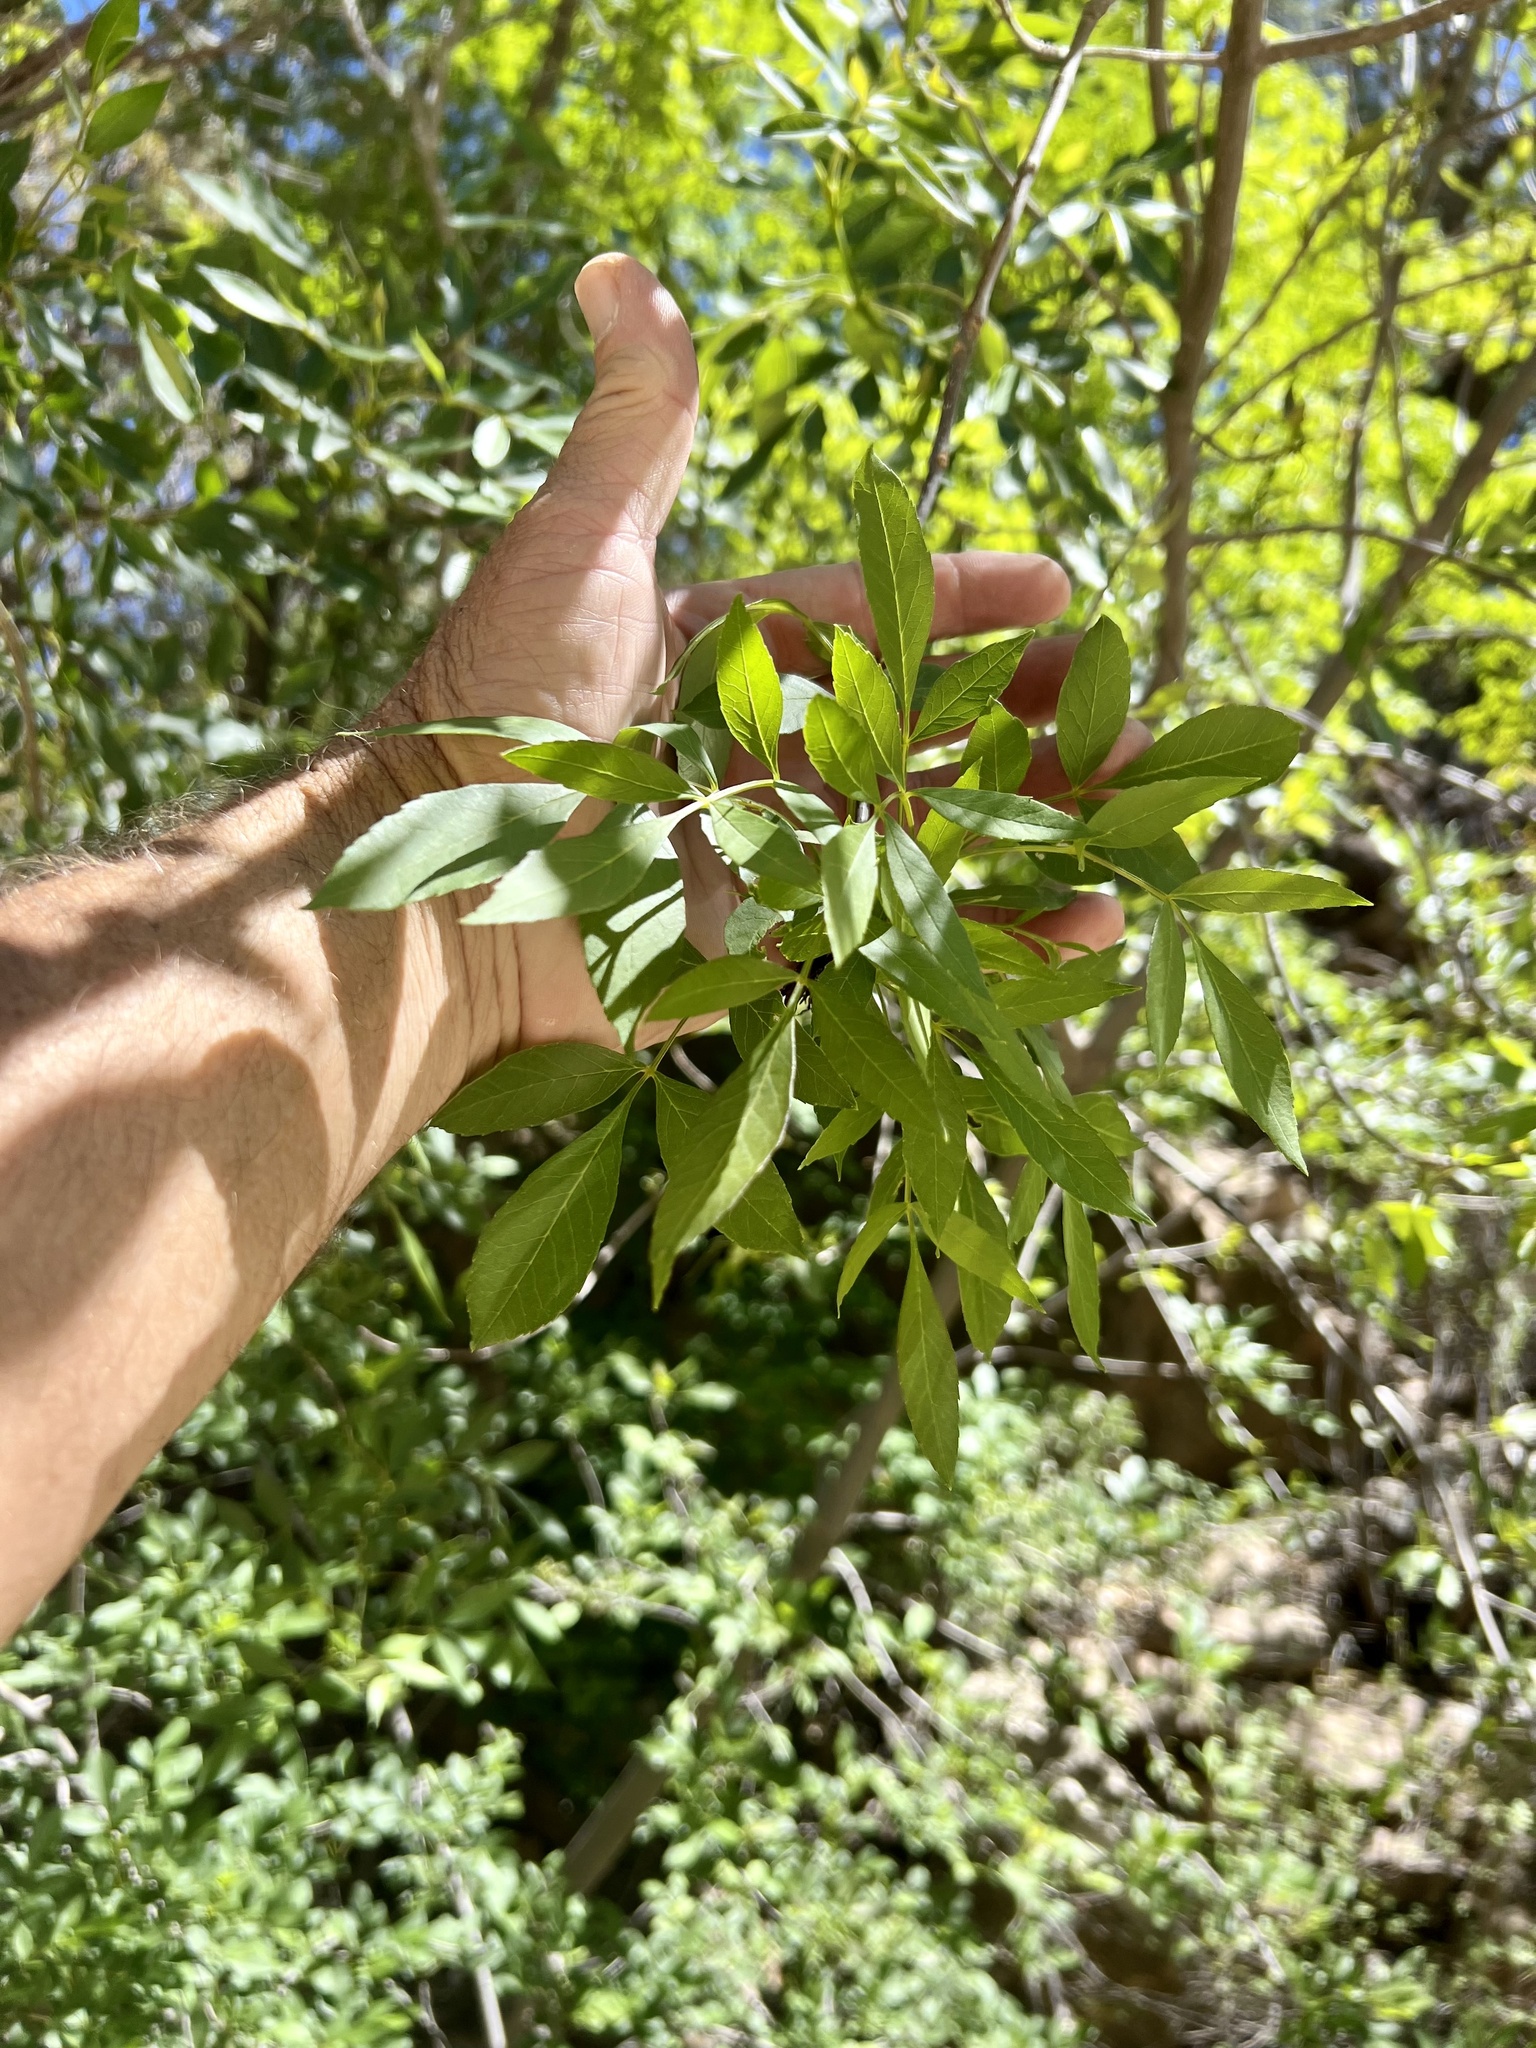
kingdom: Plantae
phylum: Tracheophyta
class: Magnoliopsida
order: Lamiales
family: Oleaceae
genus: Fraxinus
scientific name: Fraxinus velutina
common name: Arizon ash
